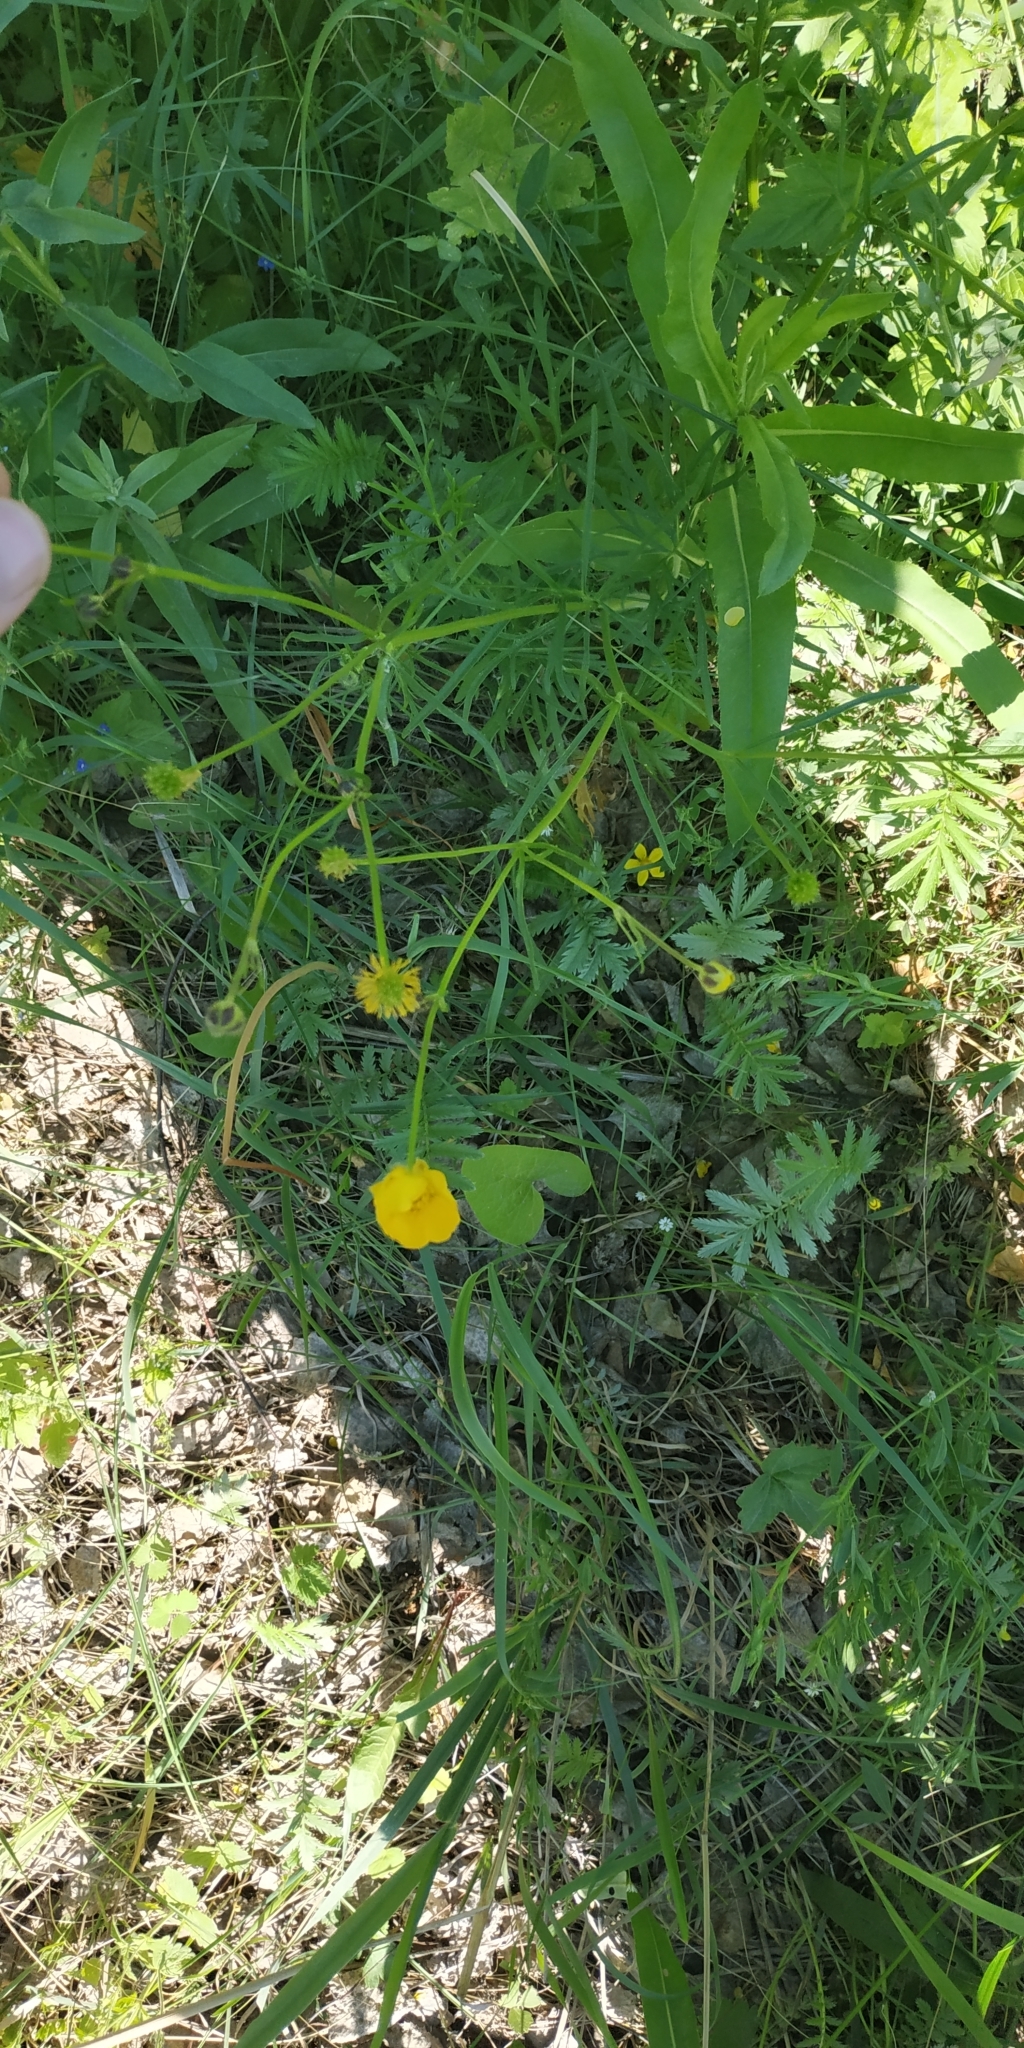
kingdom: Plantae
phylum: Tracheophyta
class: Magnoliopsida
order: Ranunculales
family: Ranunculaceae
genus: Ranunculus
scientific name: Ranunculus polyanthemos
